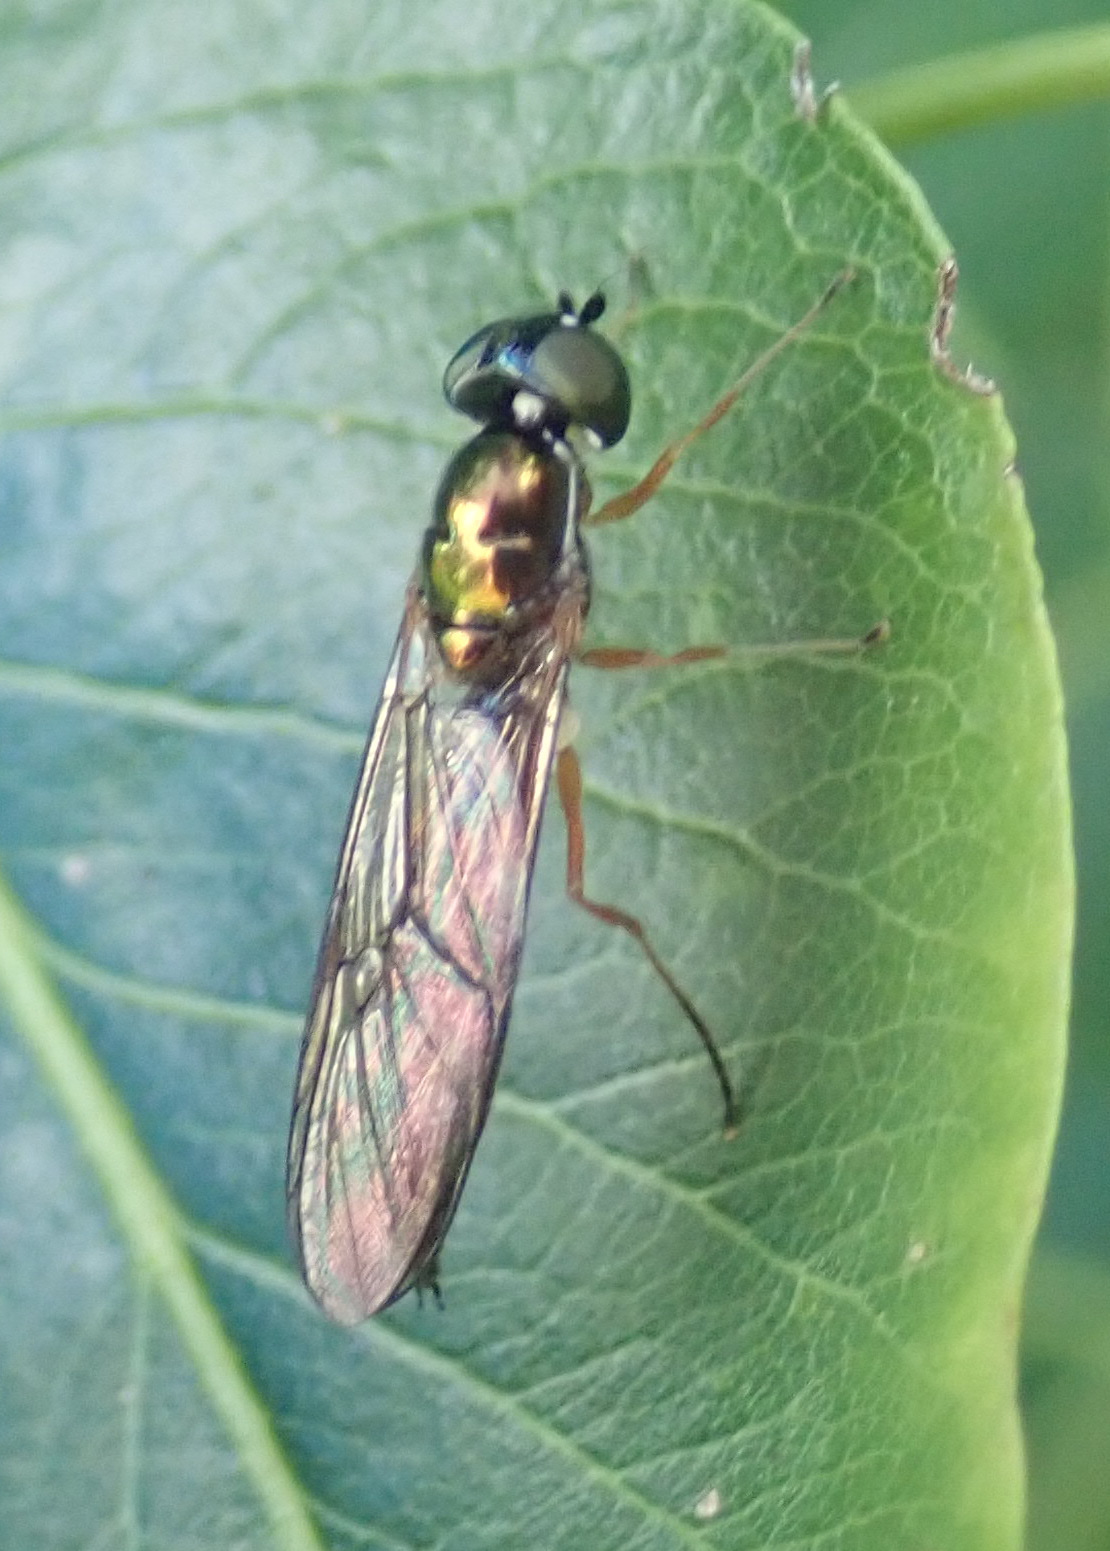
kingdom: Animalia
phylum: Arthropoda
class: Insecta
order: Diptera
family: Stratiomyidae
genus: Sargus
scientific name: Sargus bipunctatus
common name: Twin-spot centurion
